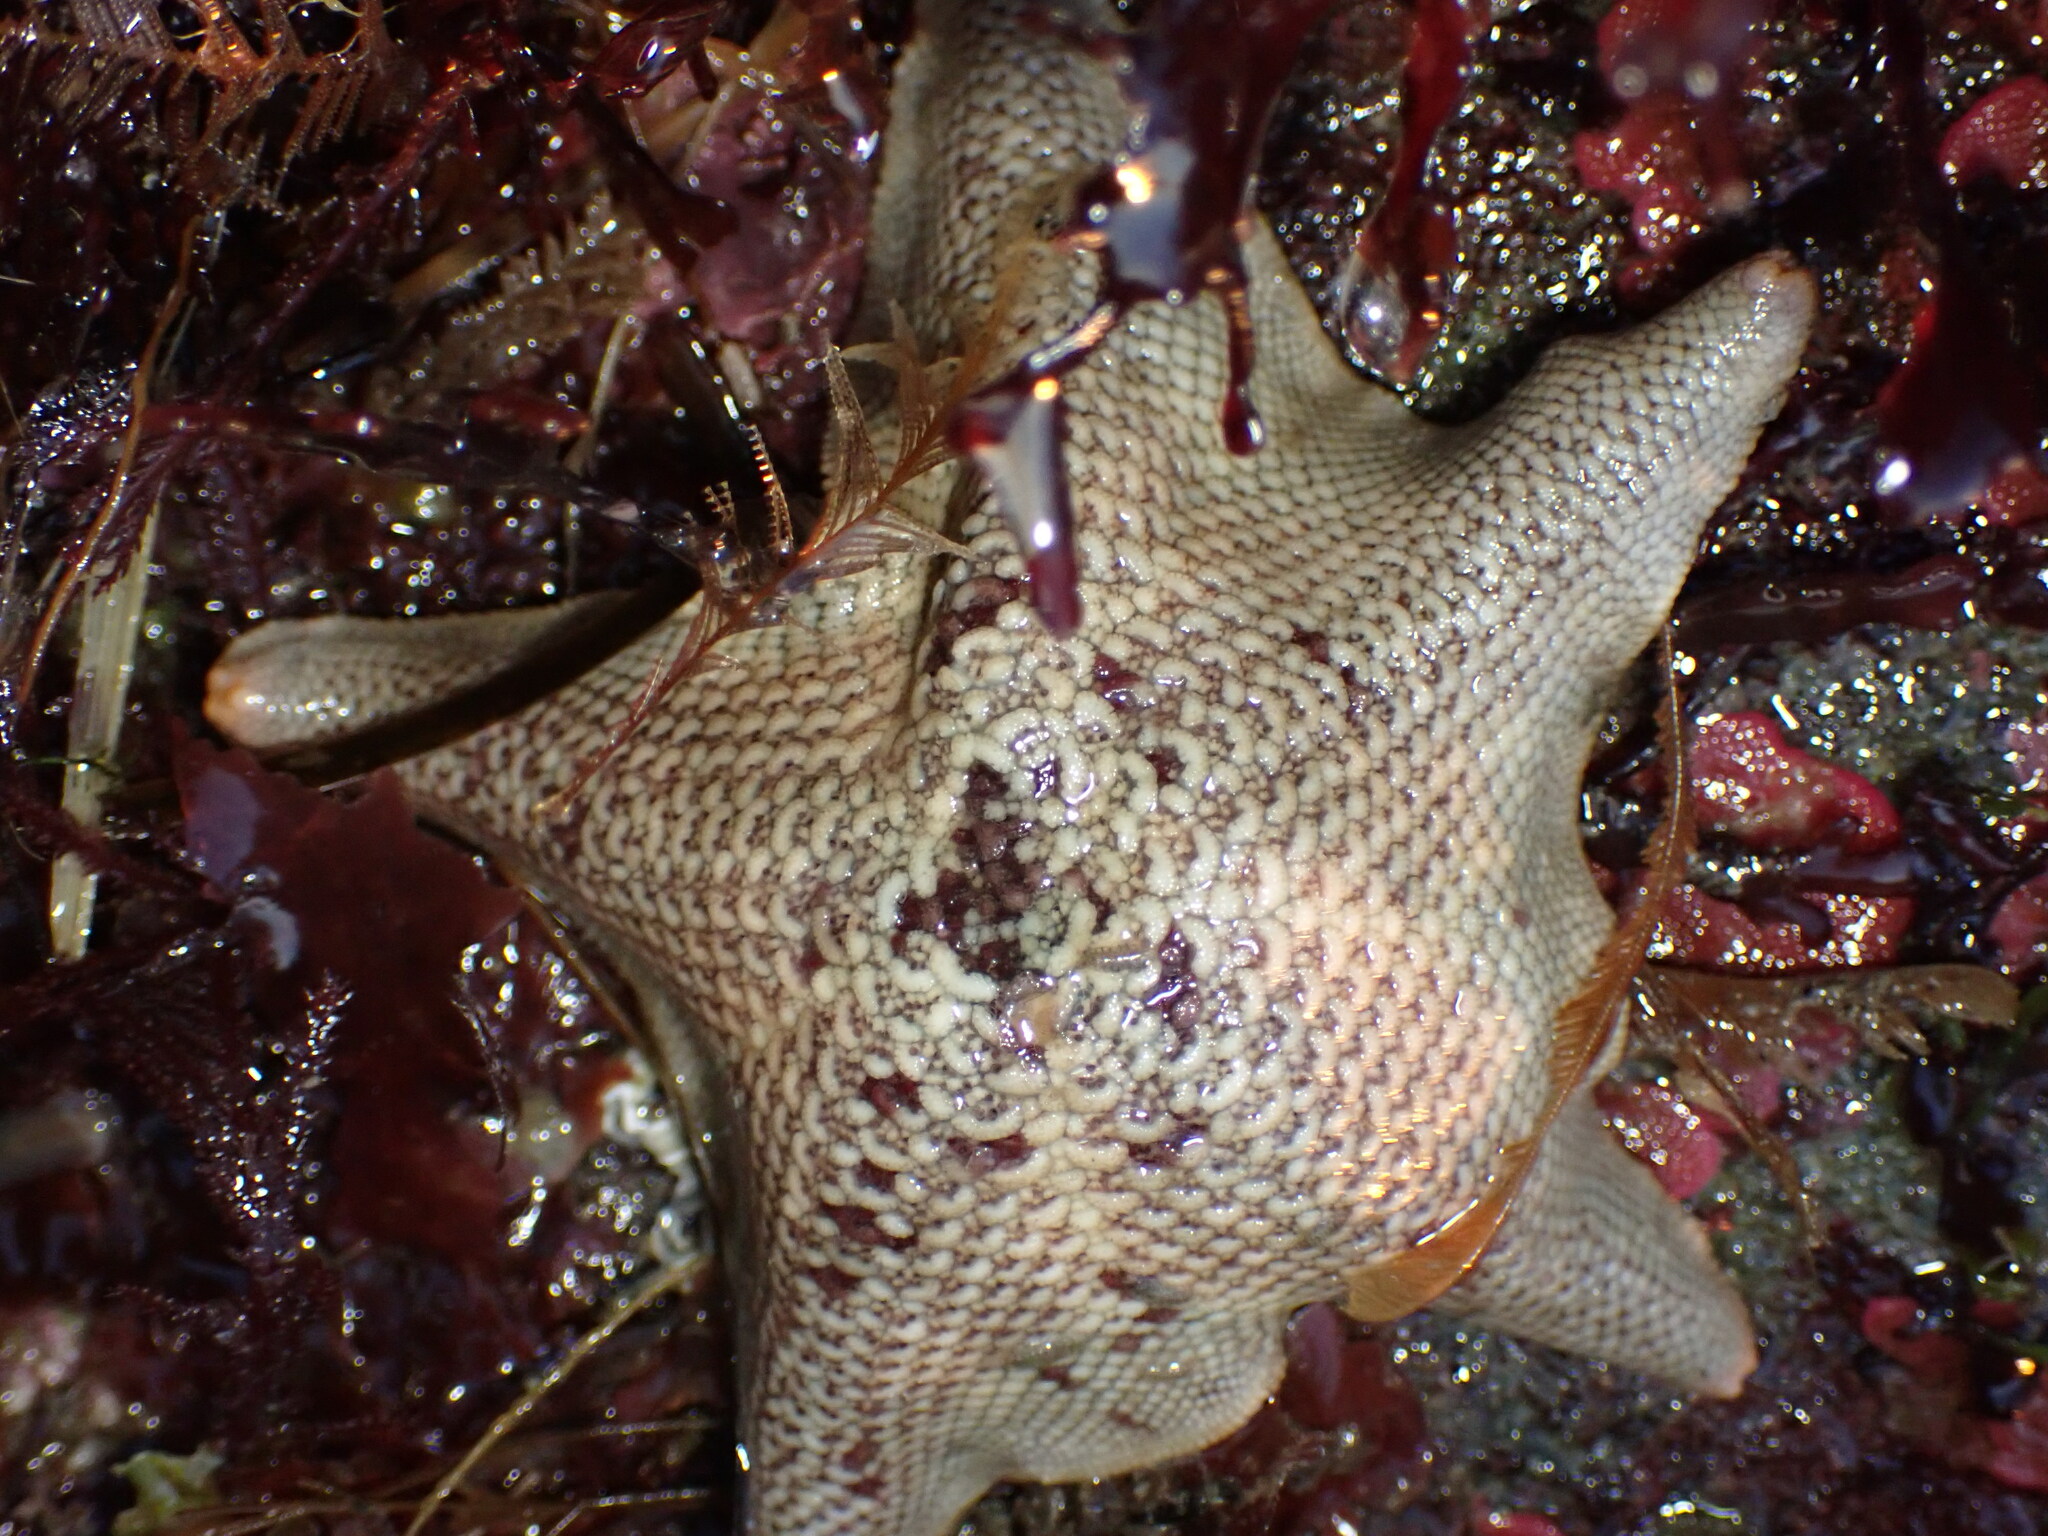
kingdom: Animalia
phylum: Echinodermata
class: Asteroidea
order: Valvatida
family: Asterinidae
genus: Patiria
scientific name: Patiria miniata
